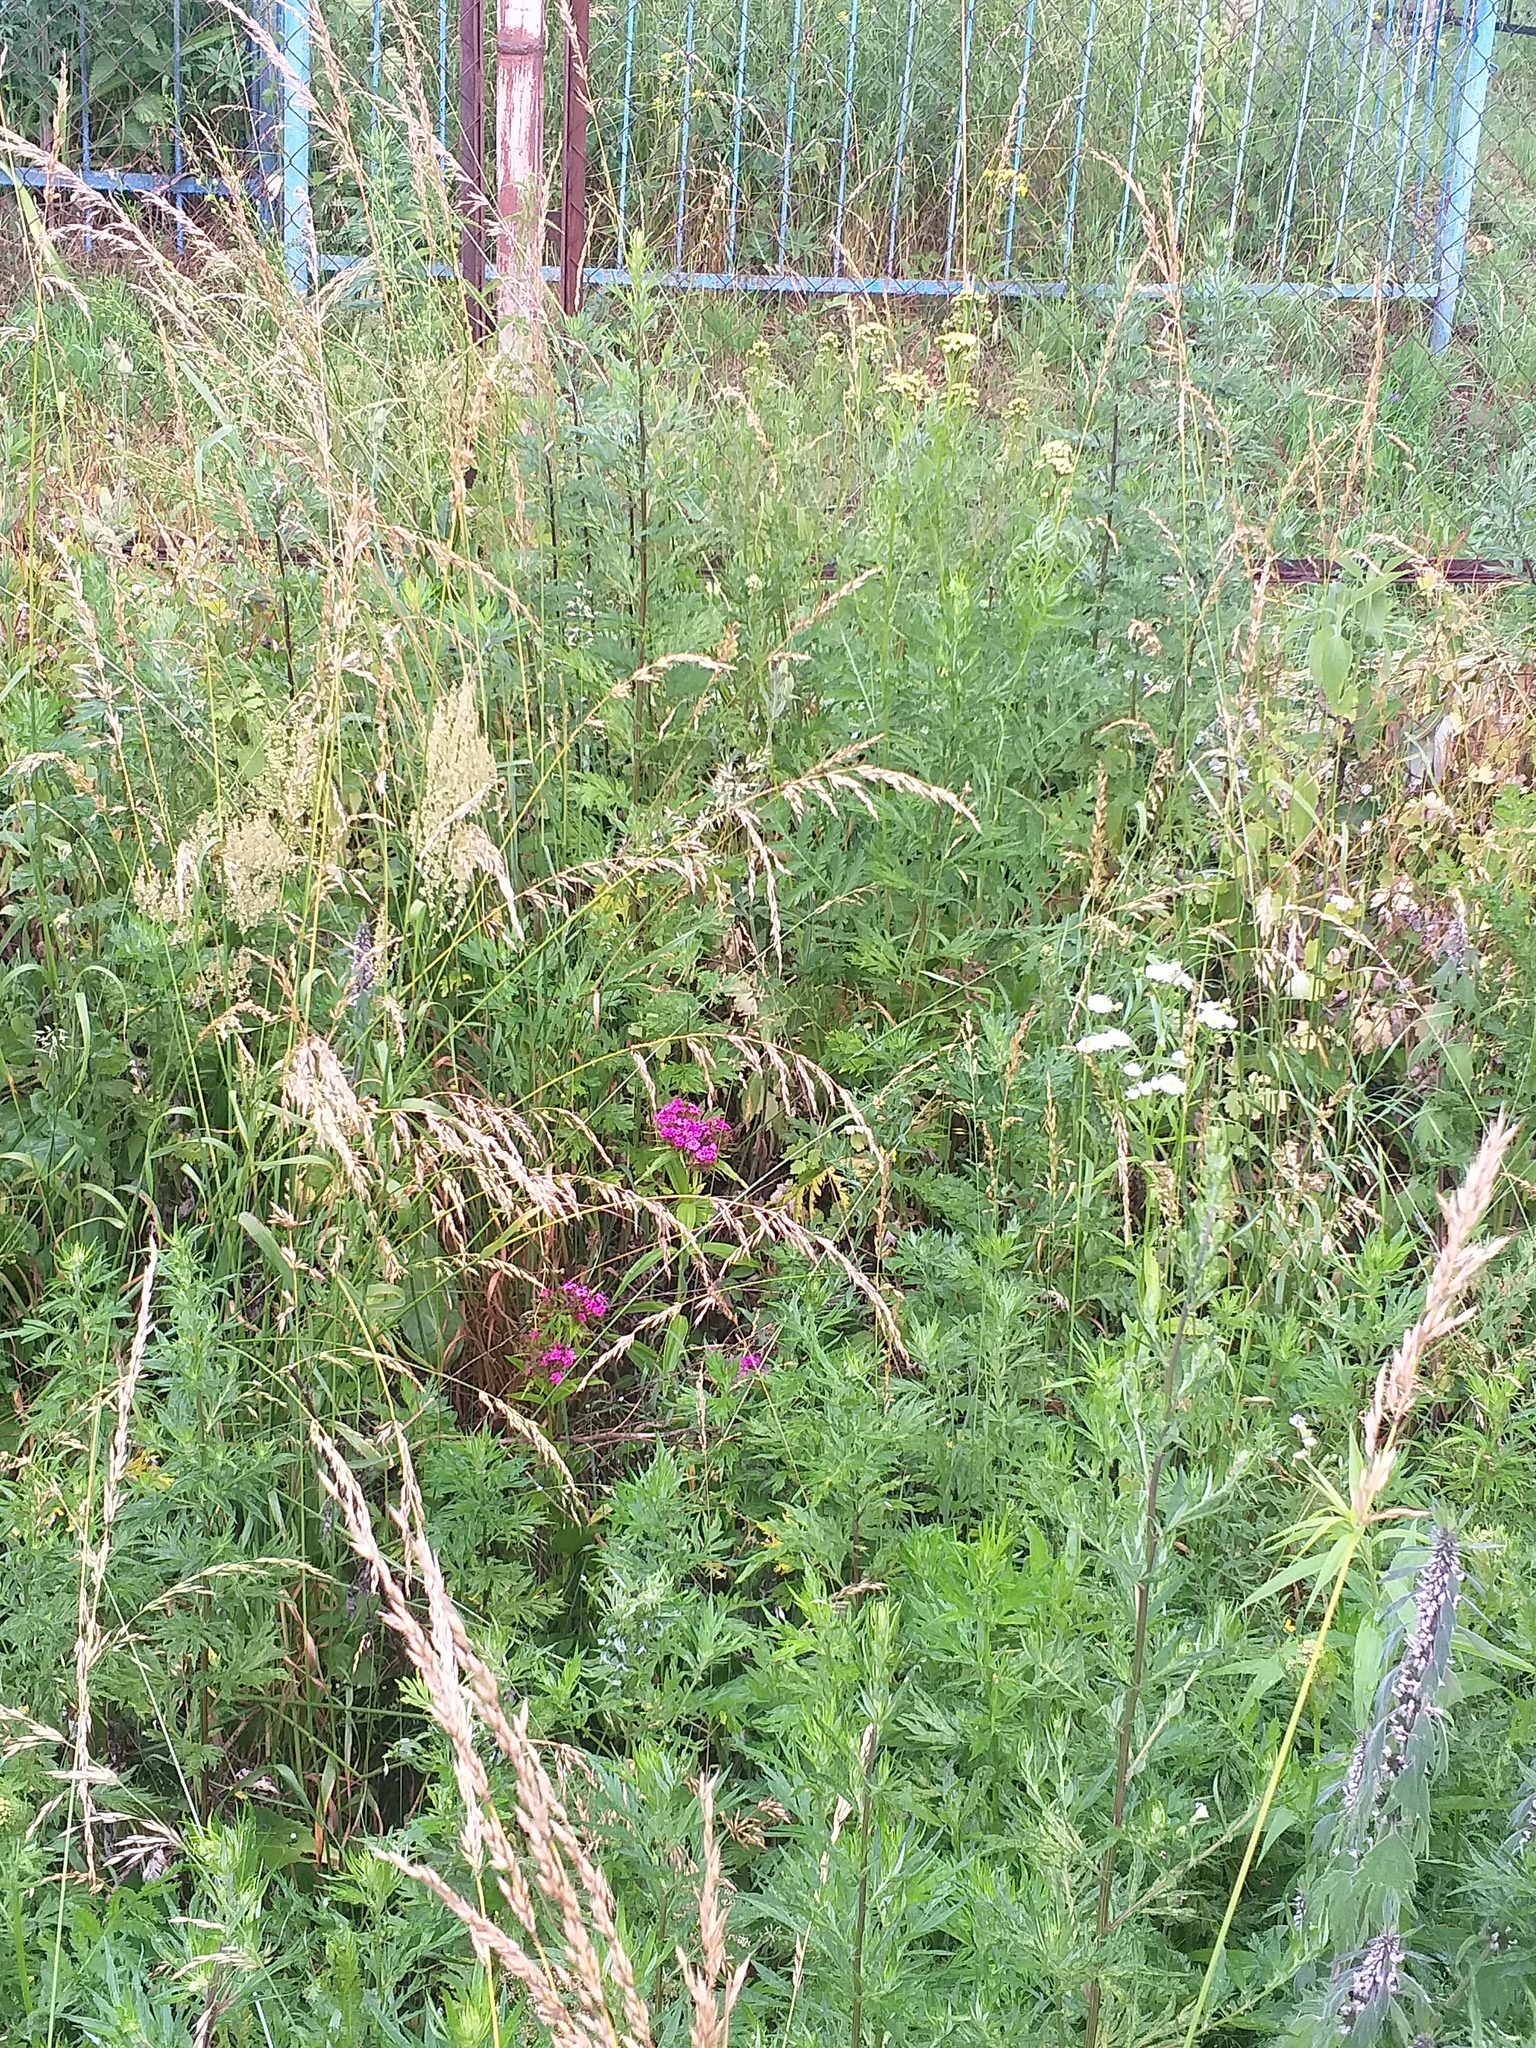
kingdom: Plantae
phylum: Tracheophyta
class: Magnoliopsida
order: Caryophyllales
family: Caryophyllaceae
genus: Dianthus
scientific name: Dianthus barbatus
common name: Sweet-william
